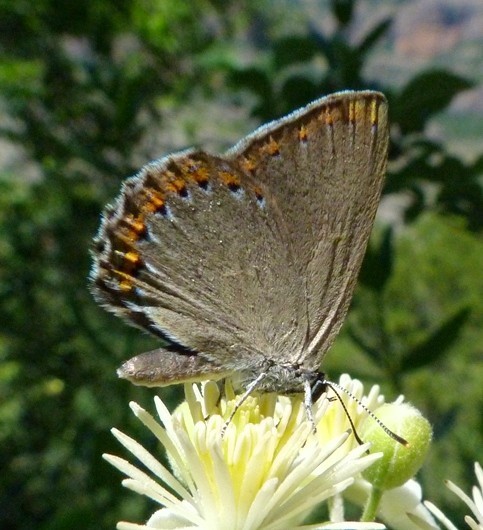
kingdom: Animalia
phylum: Arthropoda
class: Insecta
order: Lepidoptera
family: Lycaenidae
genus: Laeosopis
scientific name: Laeosopis roboris
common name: Spanish purple hairstreak
